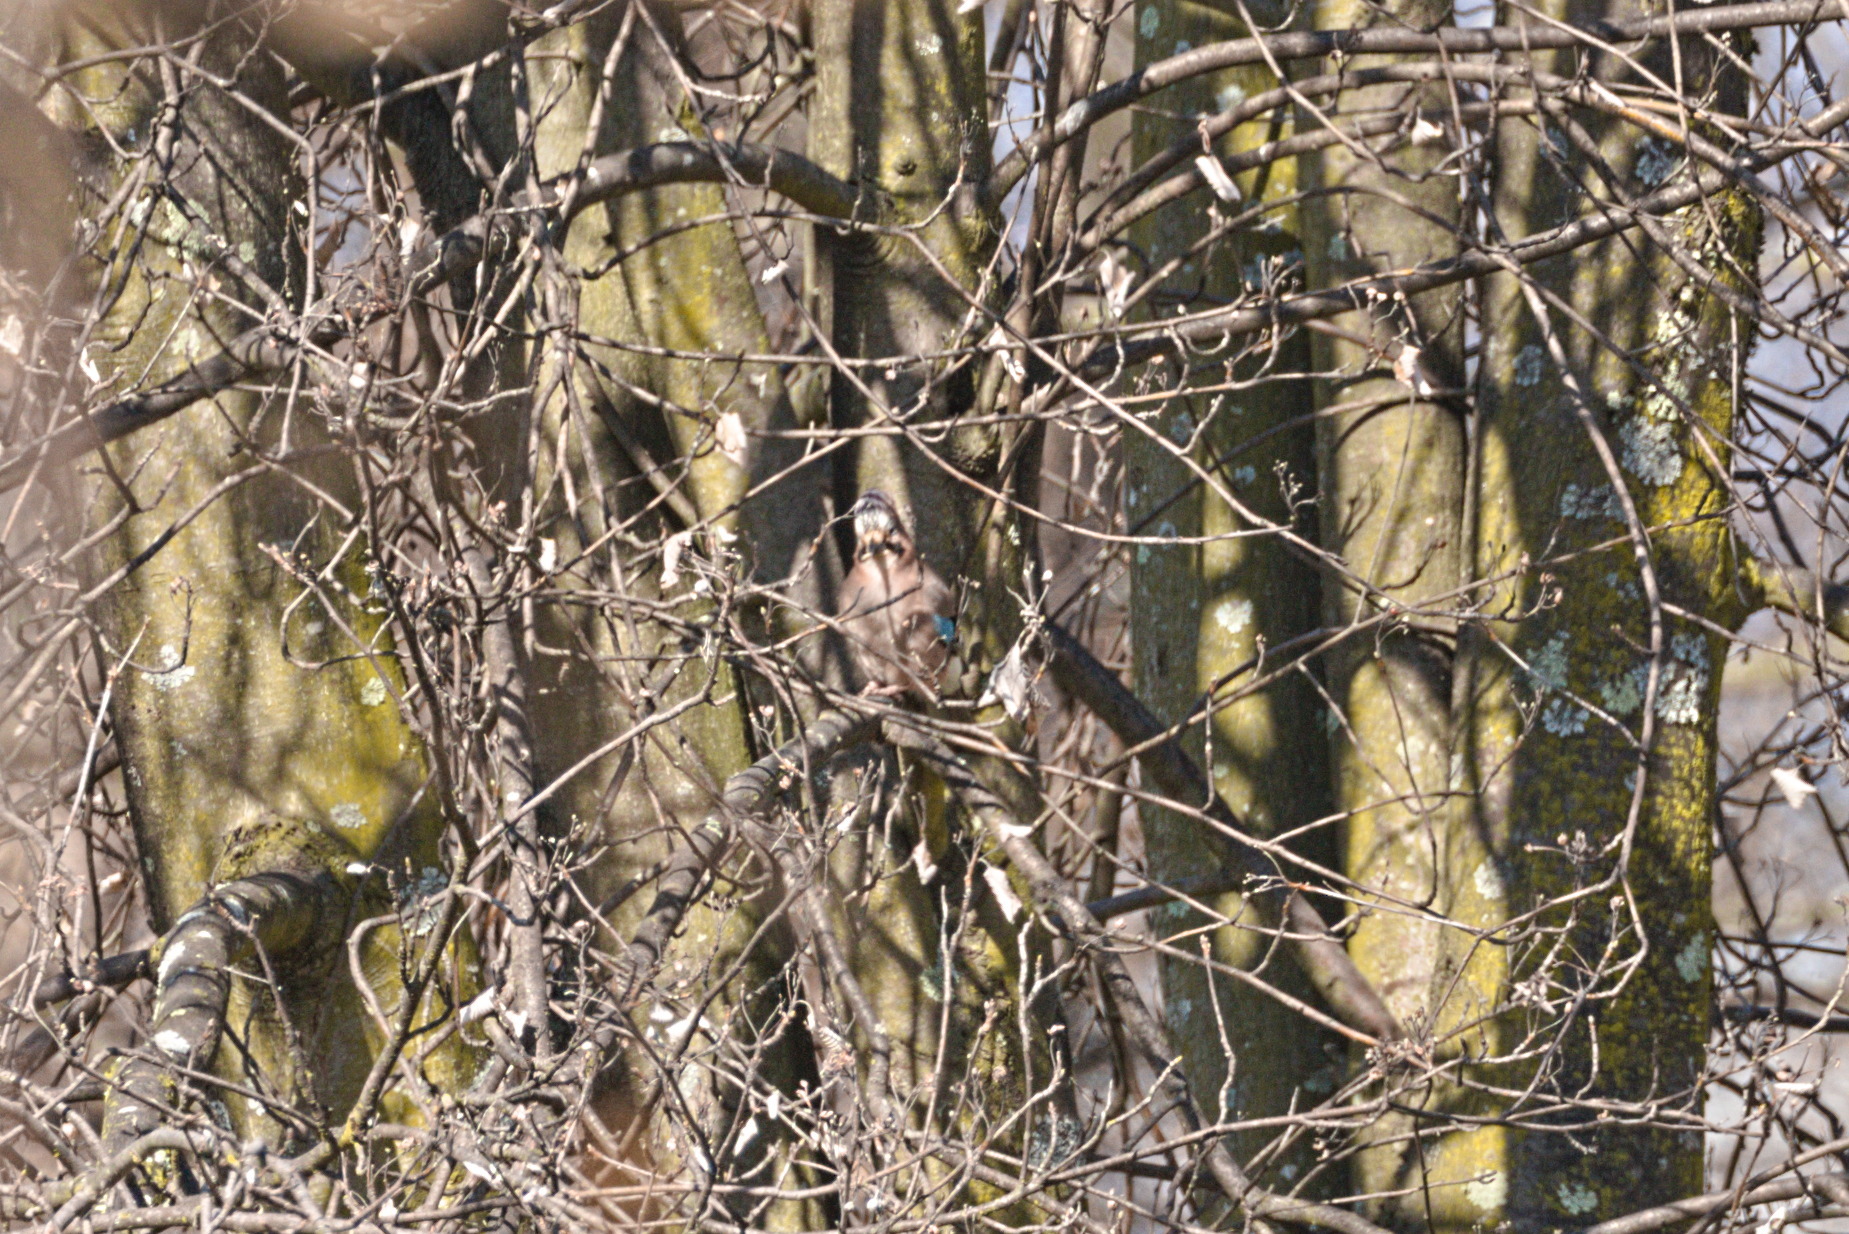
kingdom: Animalia
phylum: Chordata
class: Aves
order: Passeriformes
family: Corvidae
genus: Garrulus
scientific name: Garrulus glandarius
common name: Eurasian jay
